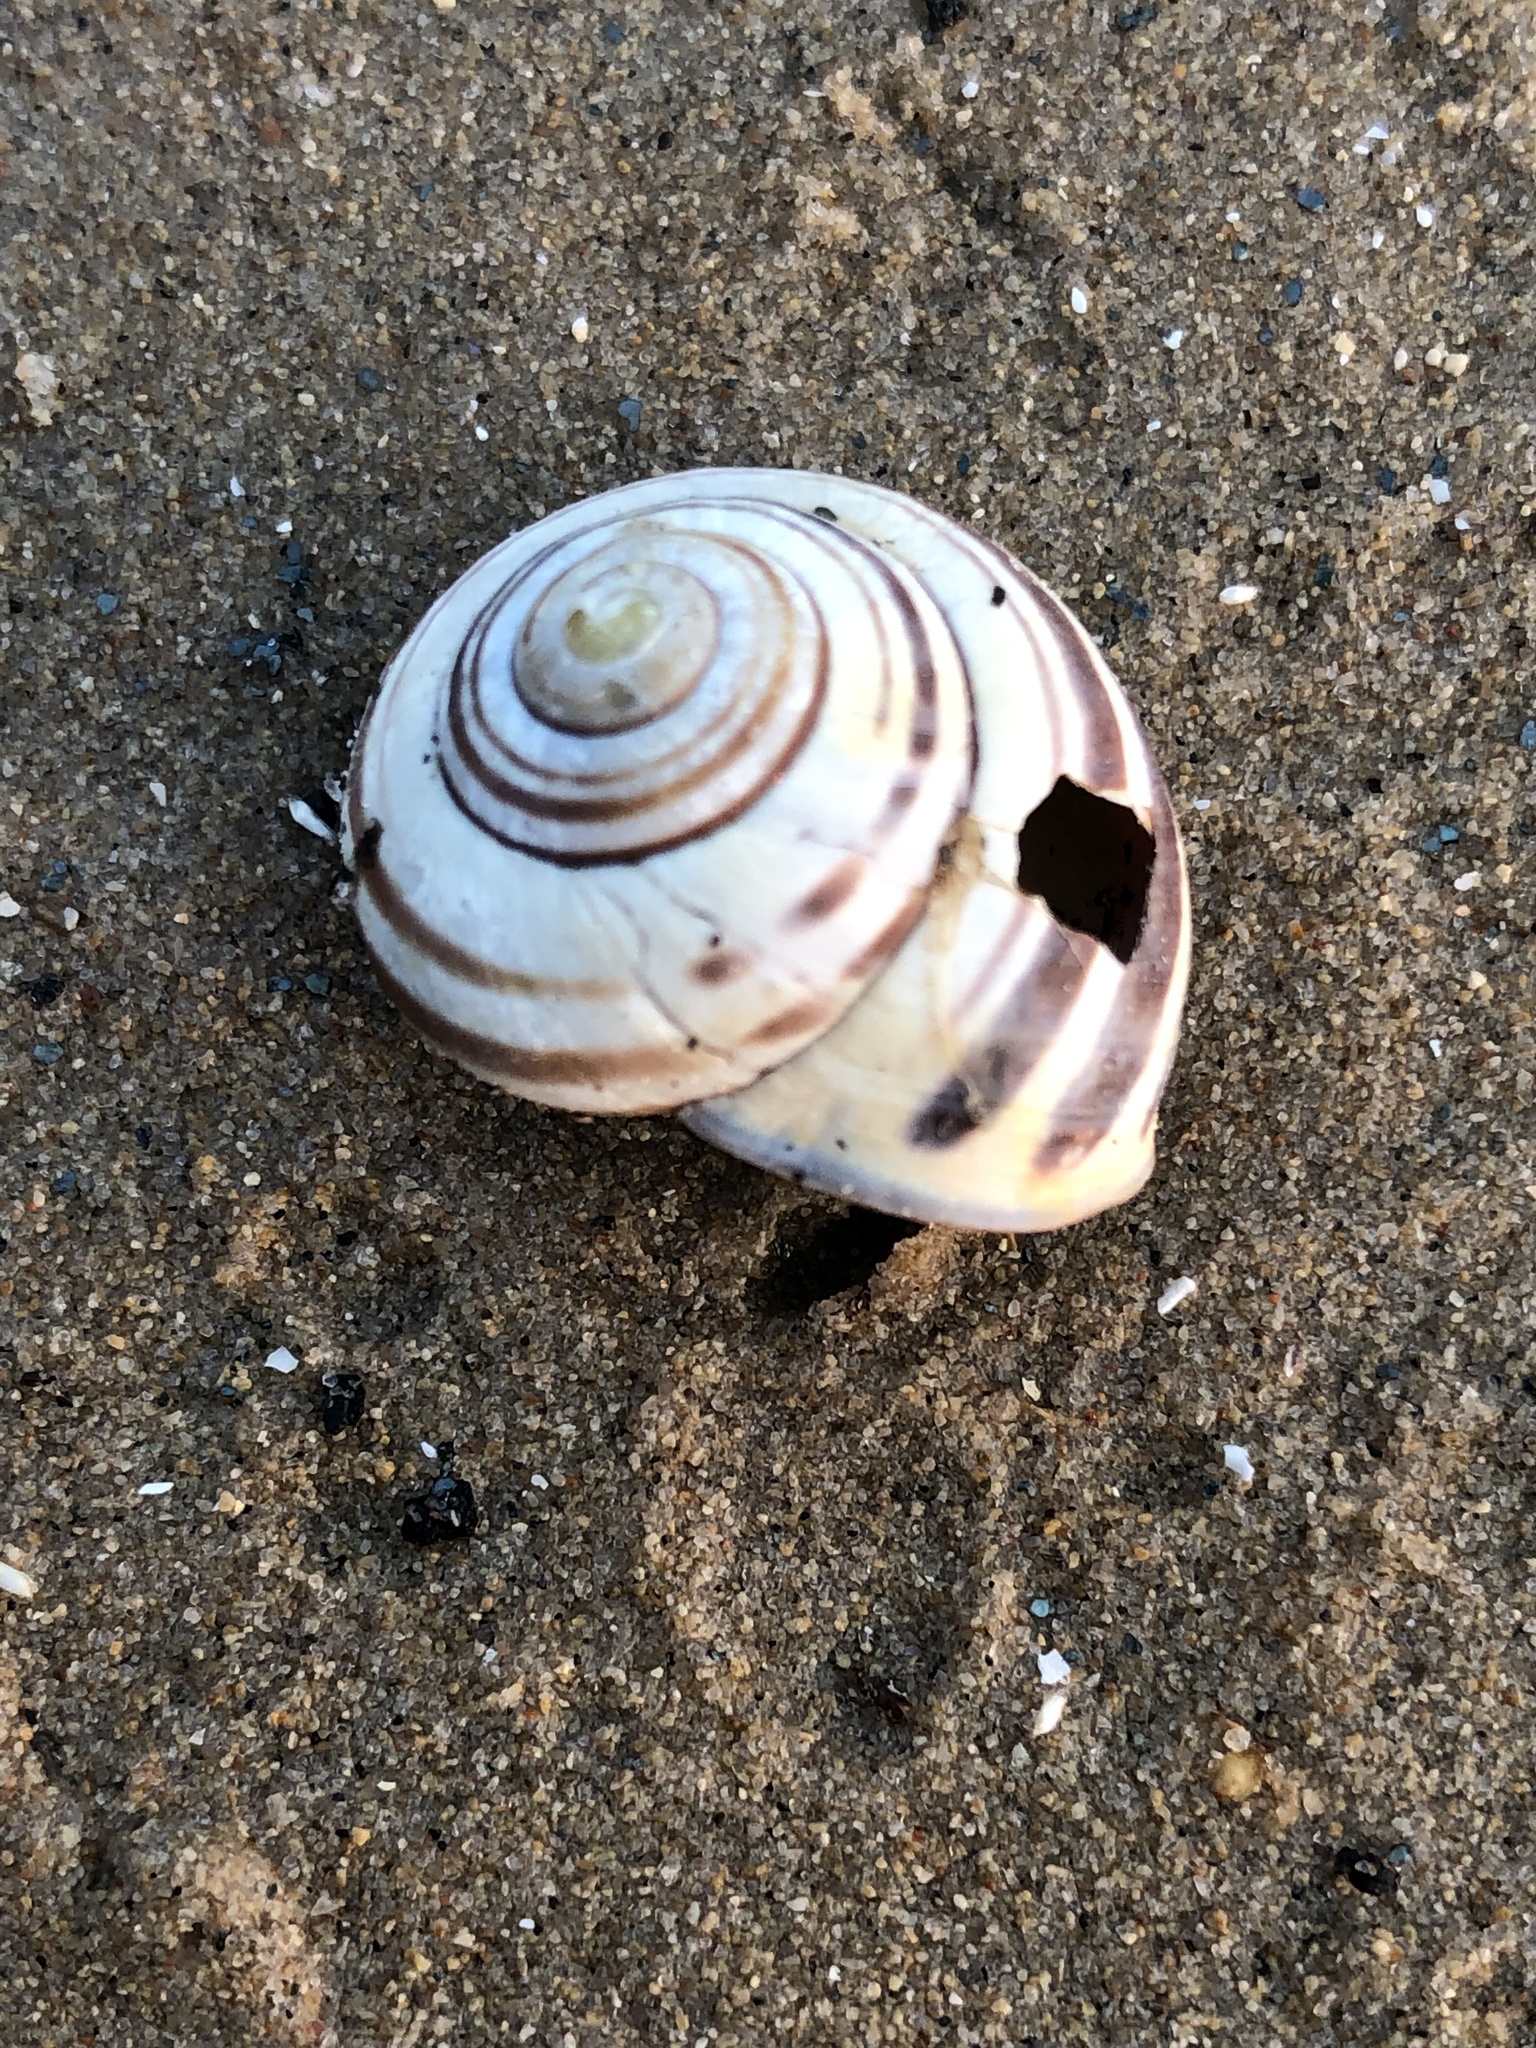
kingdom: Animalia
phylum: Mollusca
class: Gastropoda
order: Stylommatophora
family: Helicidae
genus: Cepaea
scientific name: Cepaea nemoralis
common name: Grovesnail
